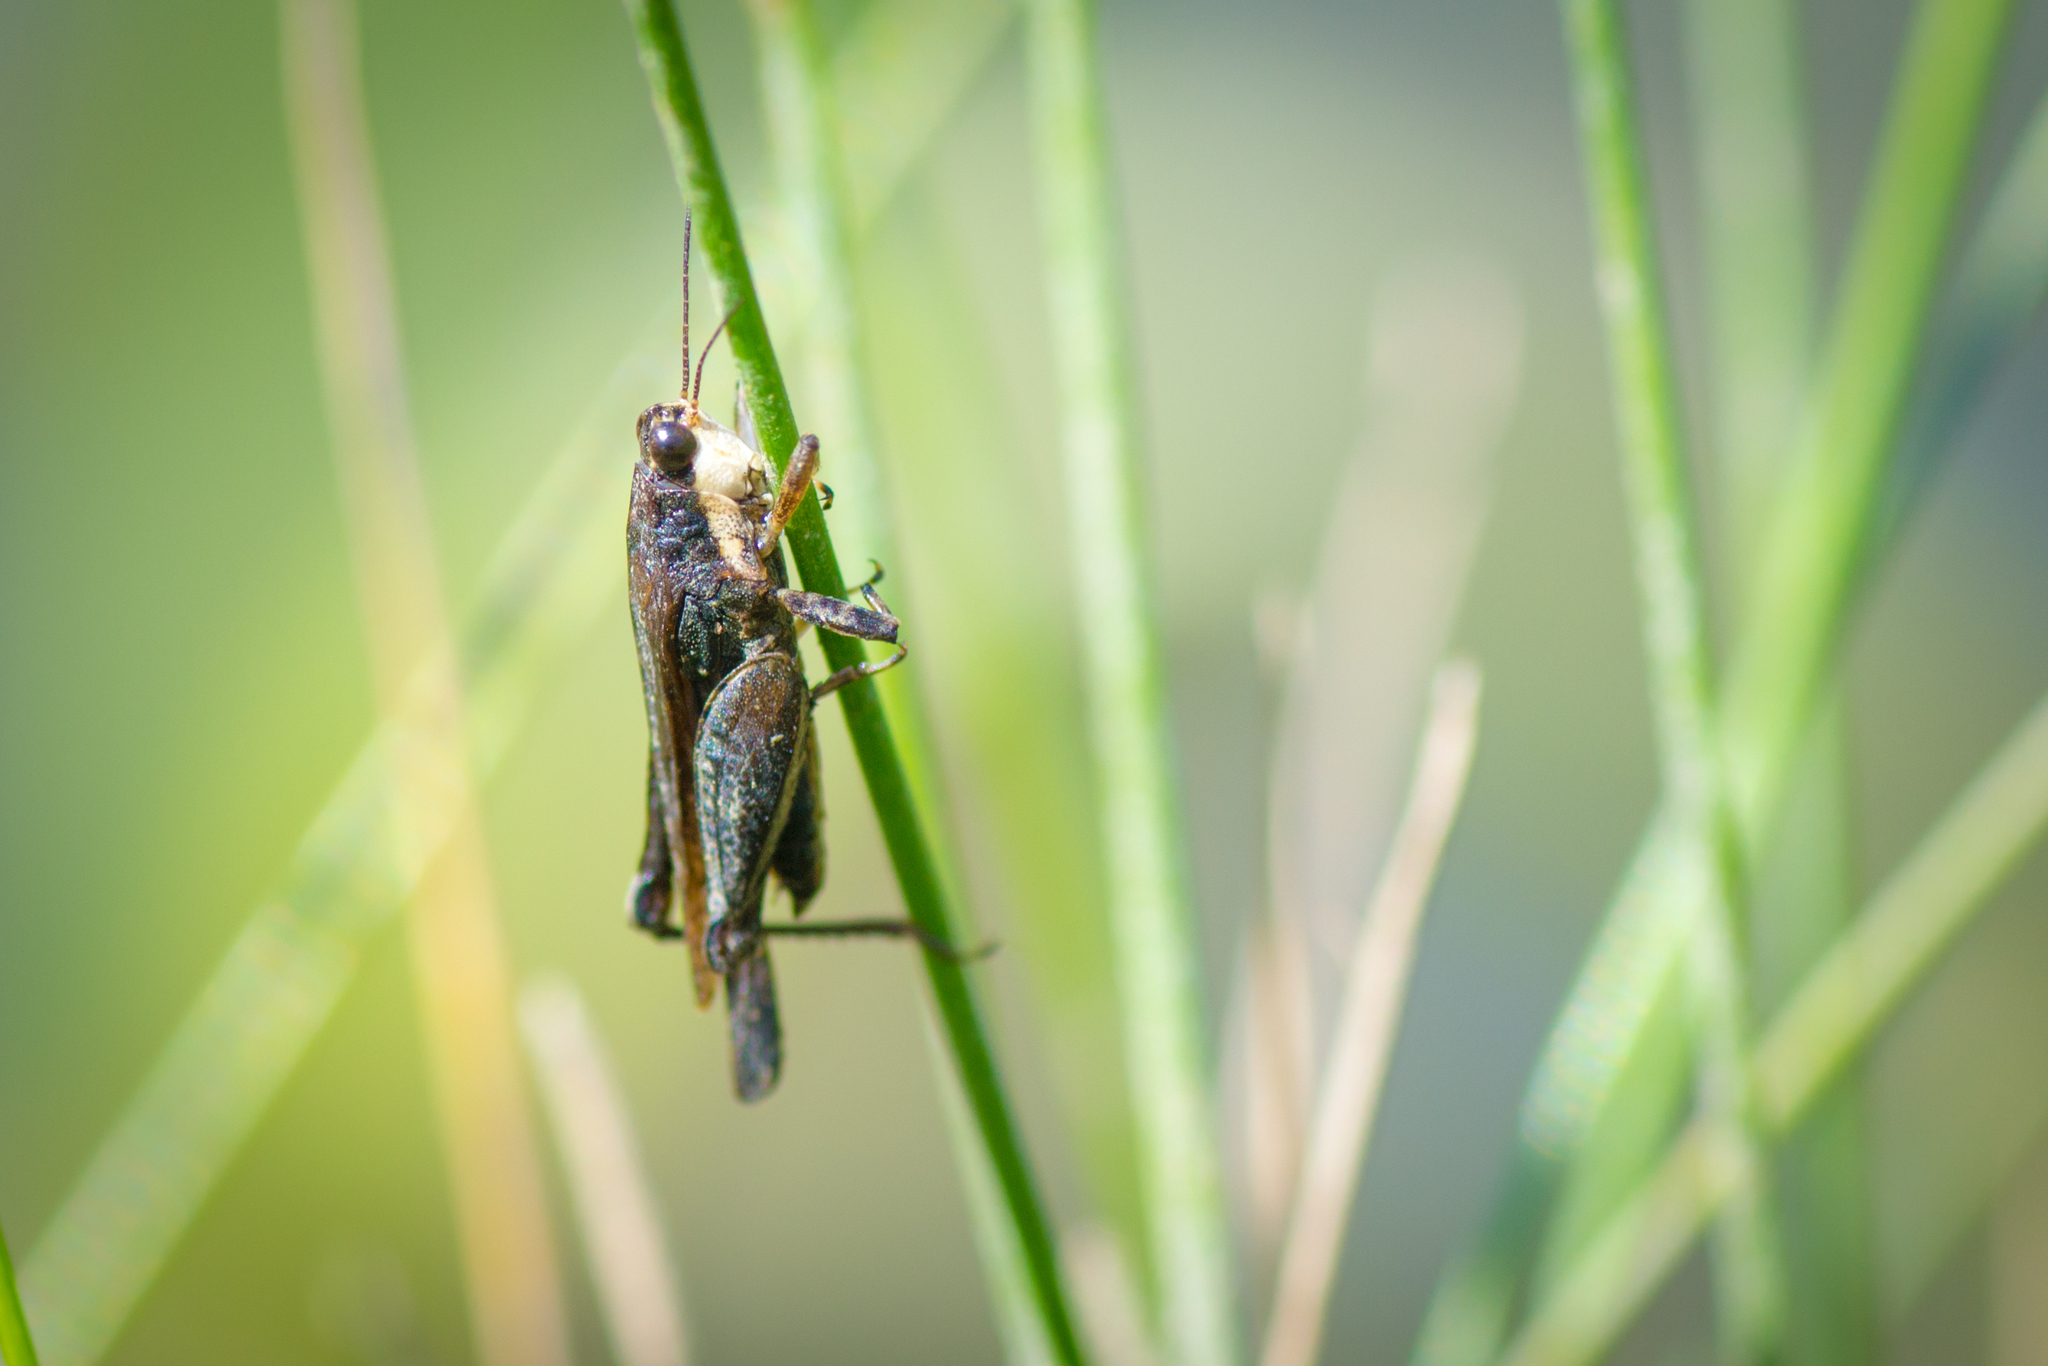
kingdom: Animalia
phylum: Arthropoda
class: Insecta
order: Orthoptera
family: Tetrigidae
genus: Tettigidea
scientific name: Tettigidea laterale
